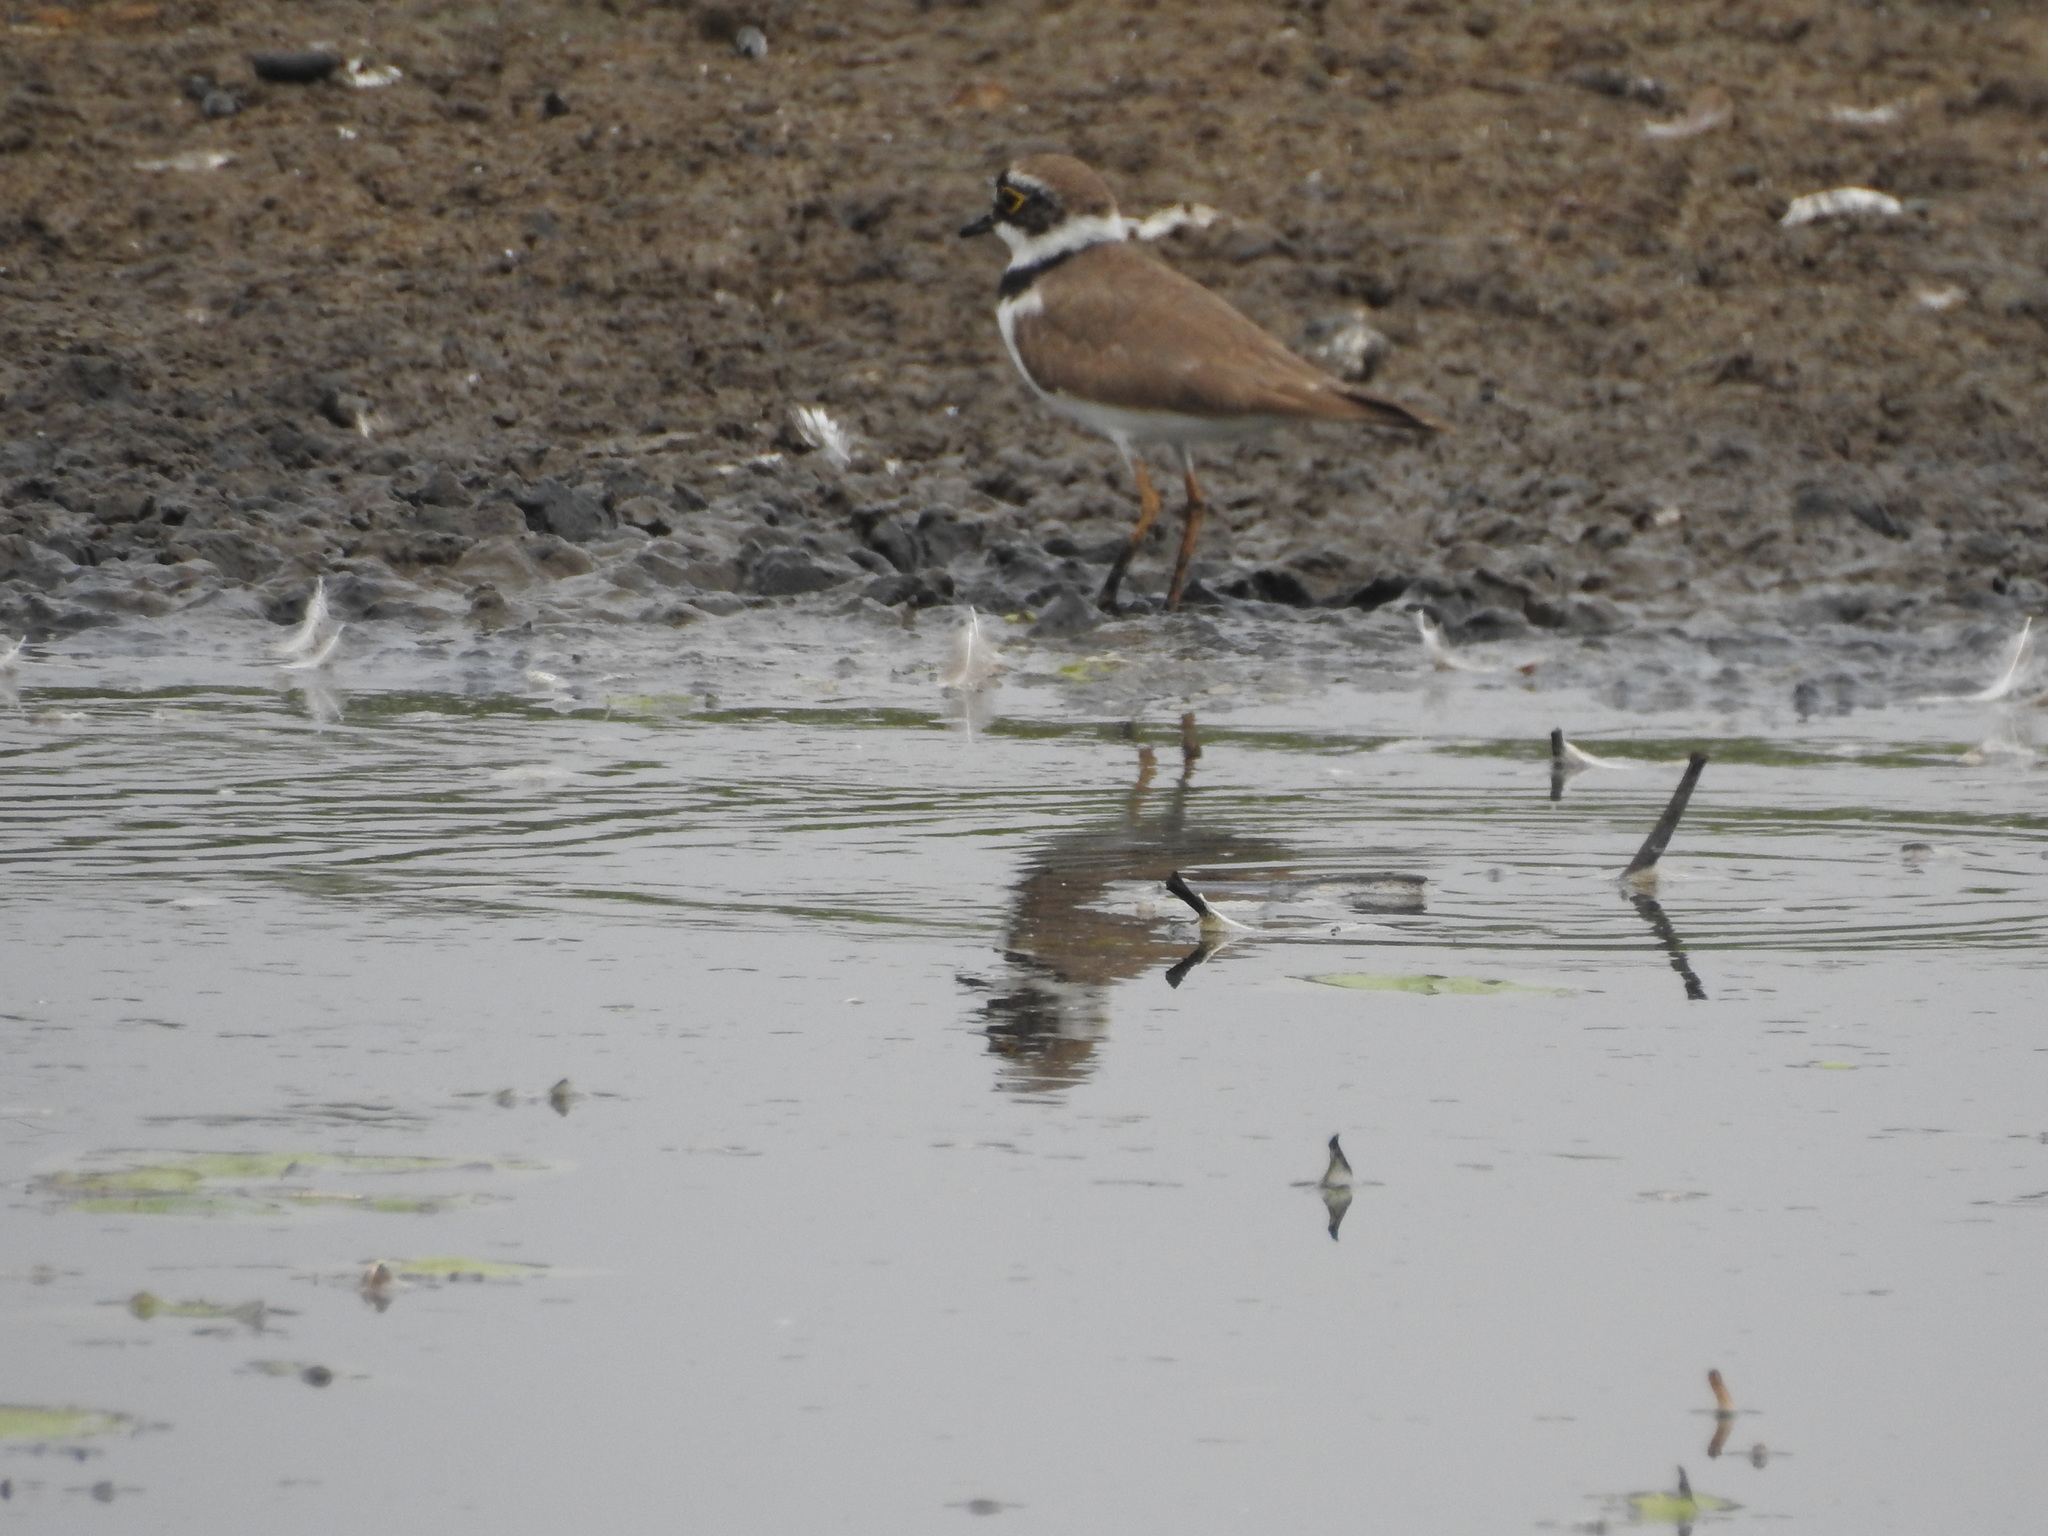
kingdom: Animalia
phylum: Chordata
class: Aves
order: Charadriiformes
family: Charadriidae
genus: Charadrius
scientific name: Charadrius dubius
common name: Little ringed plover
